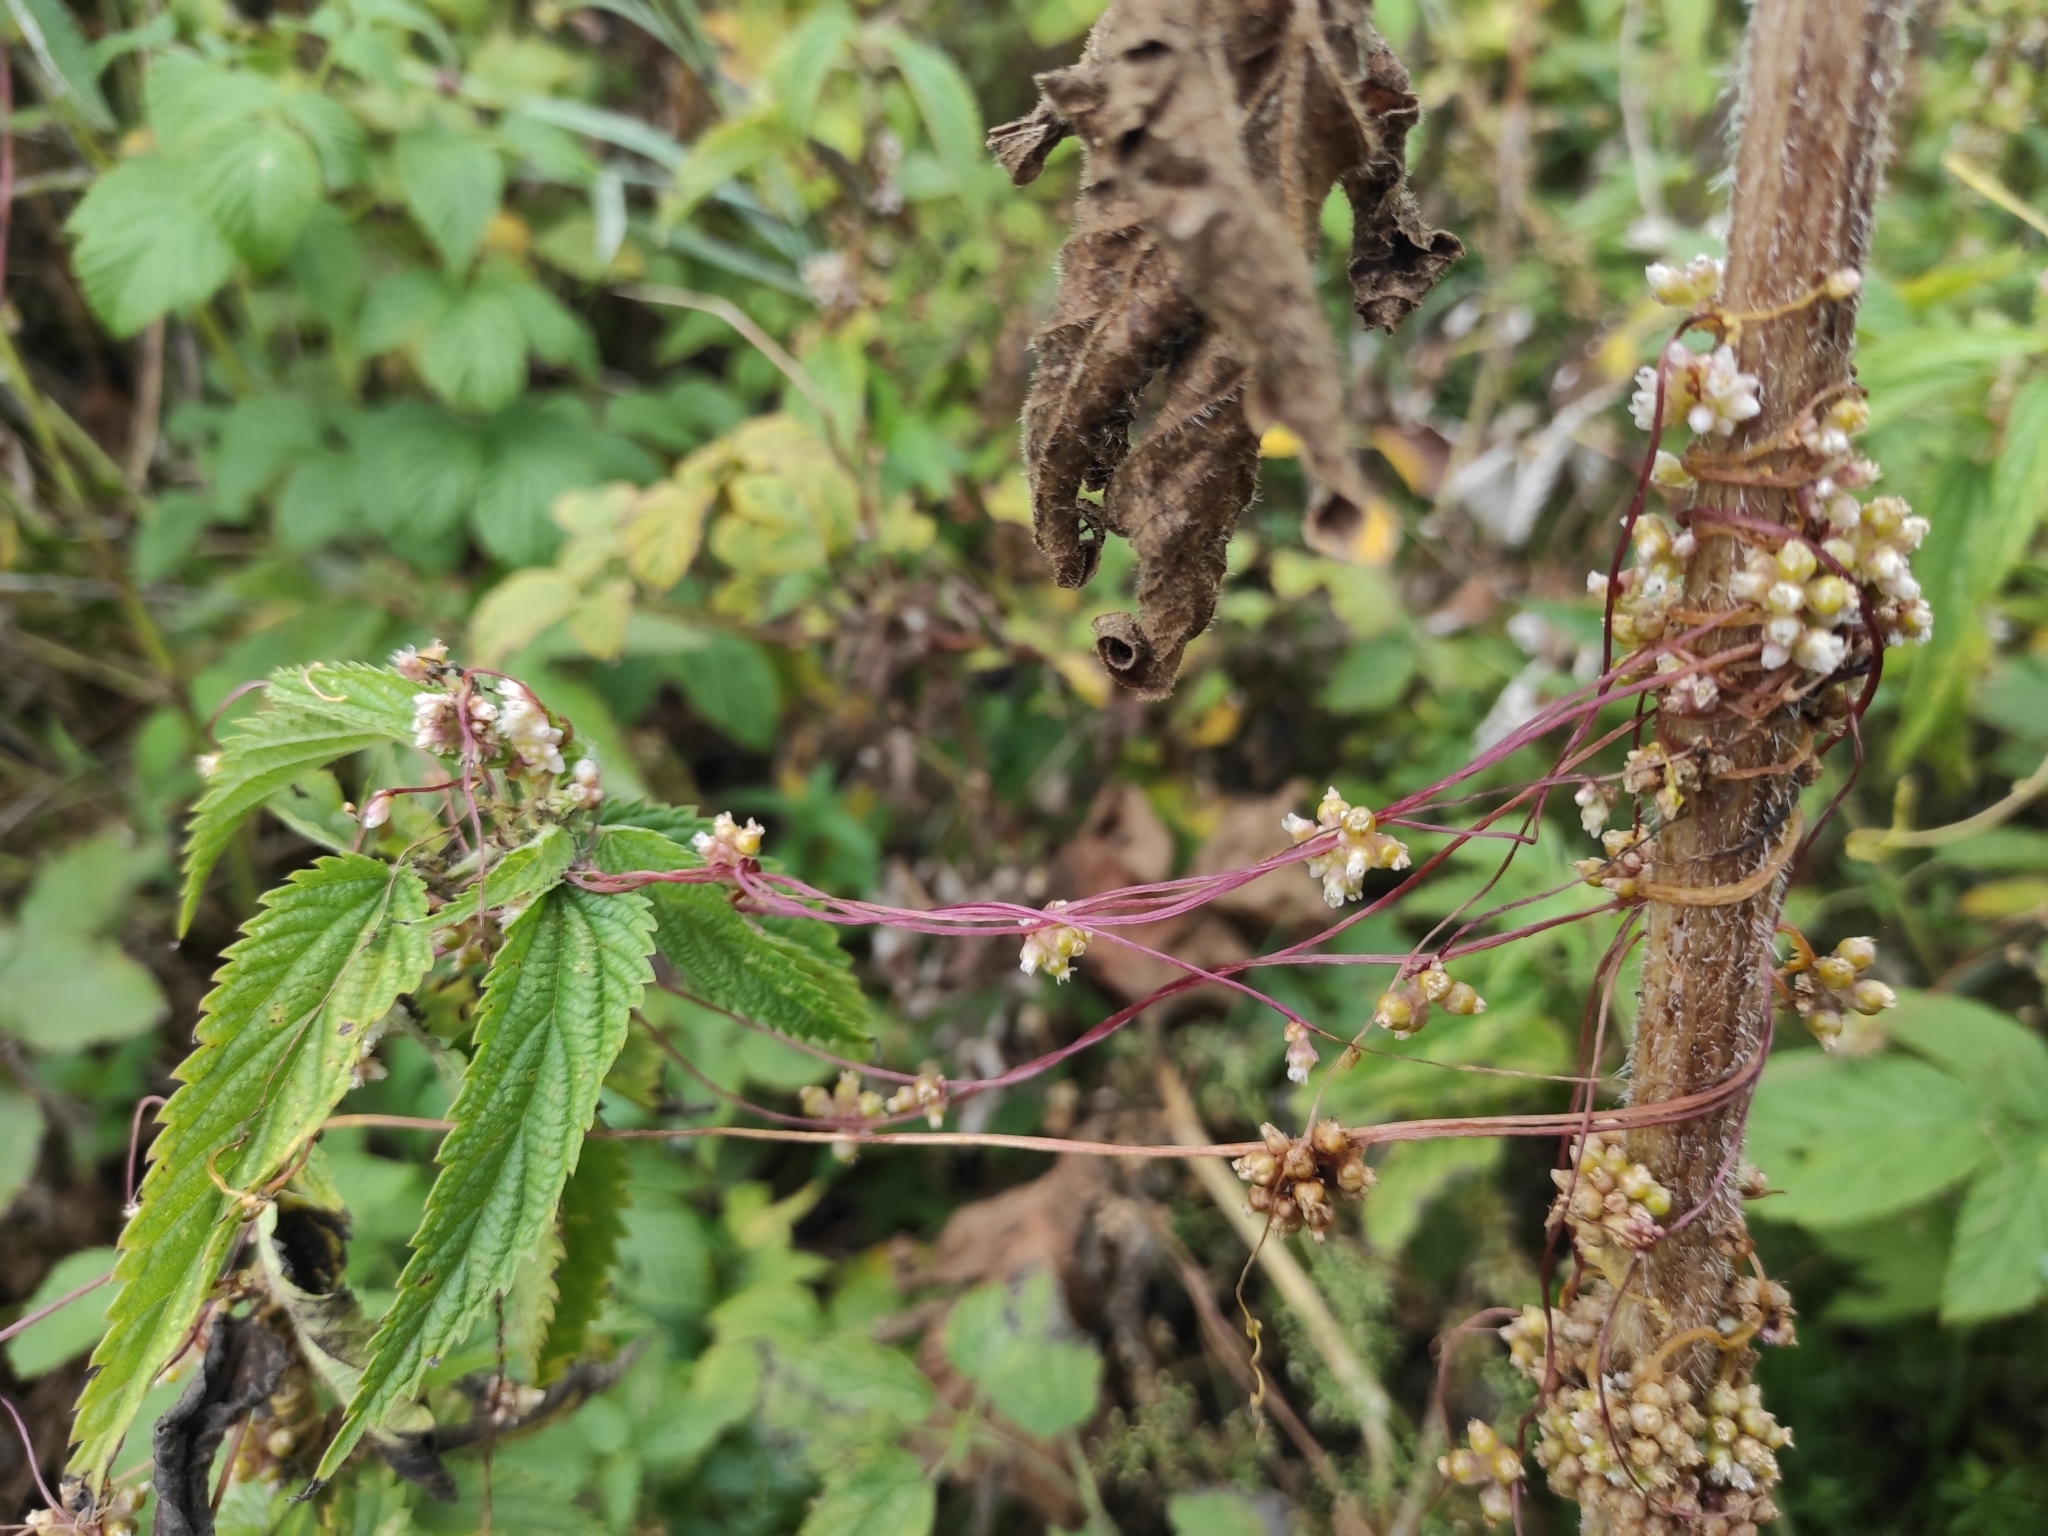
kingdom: Plantae
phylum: Tracheophyta
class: Magnoliopsida
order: Solanales
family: Convolvulaceae
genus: Cuscuta
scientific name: Cuscuta europaea
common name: Greater dodder
